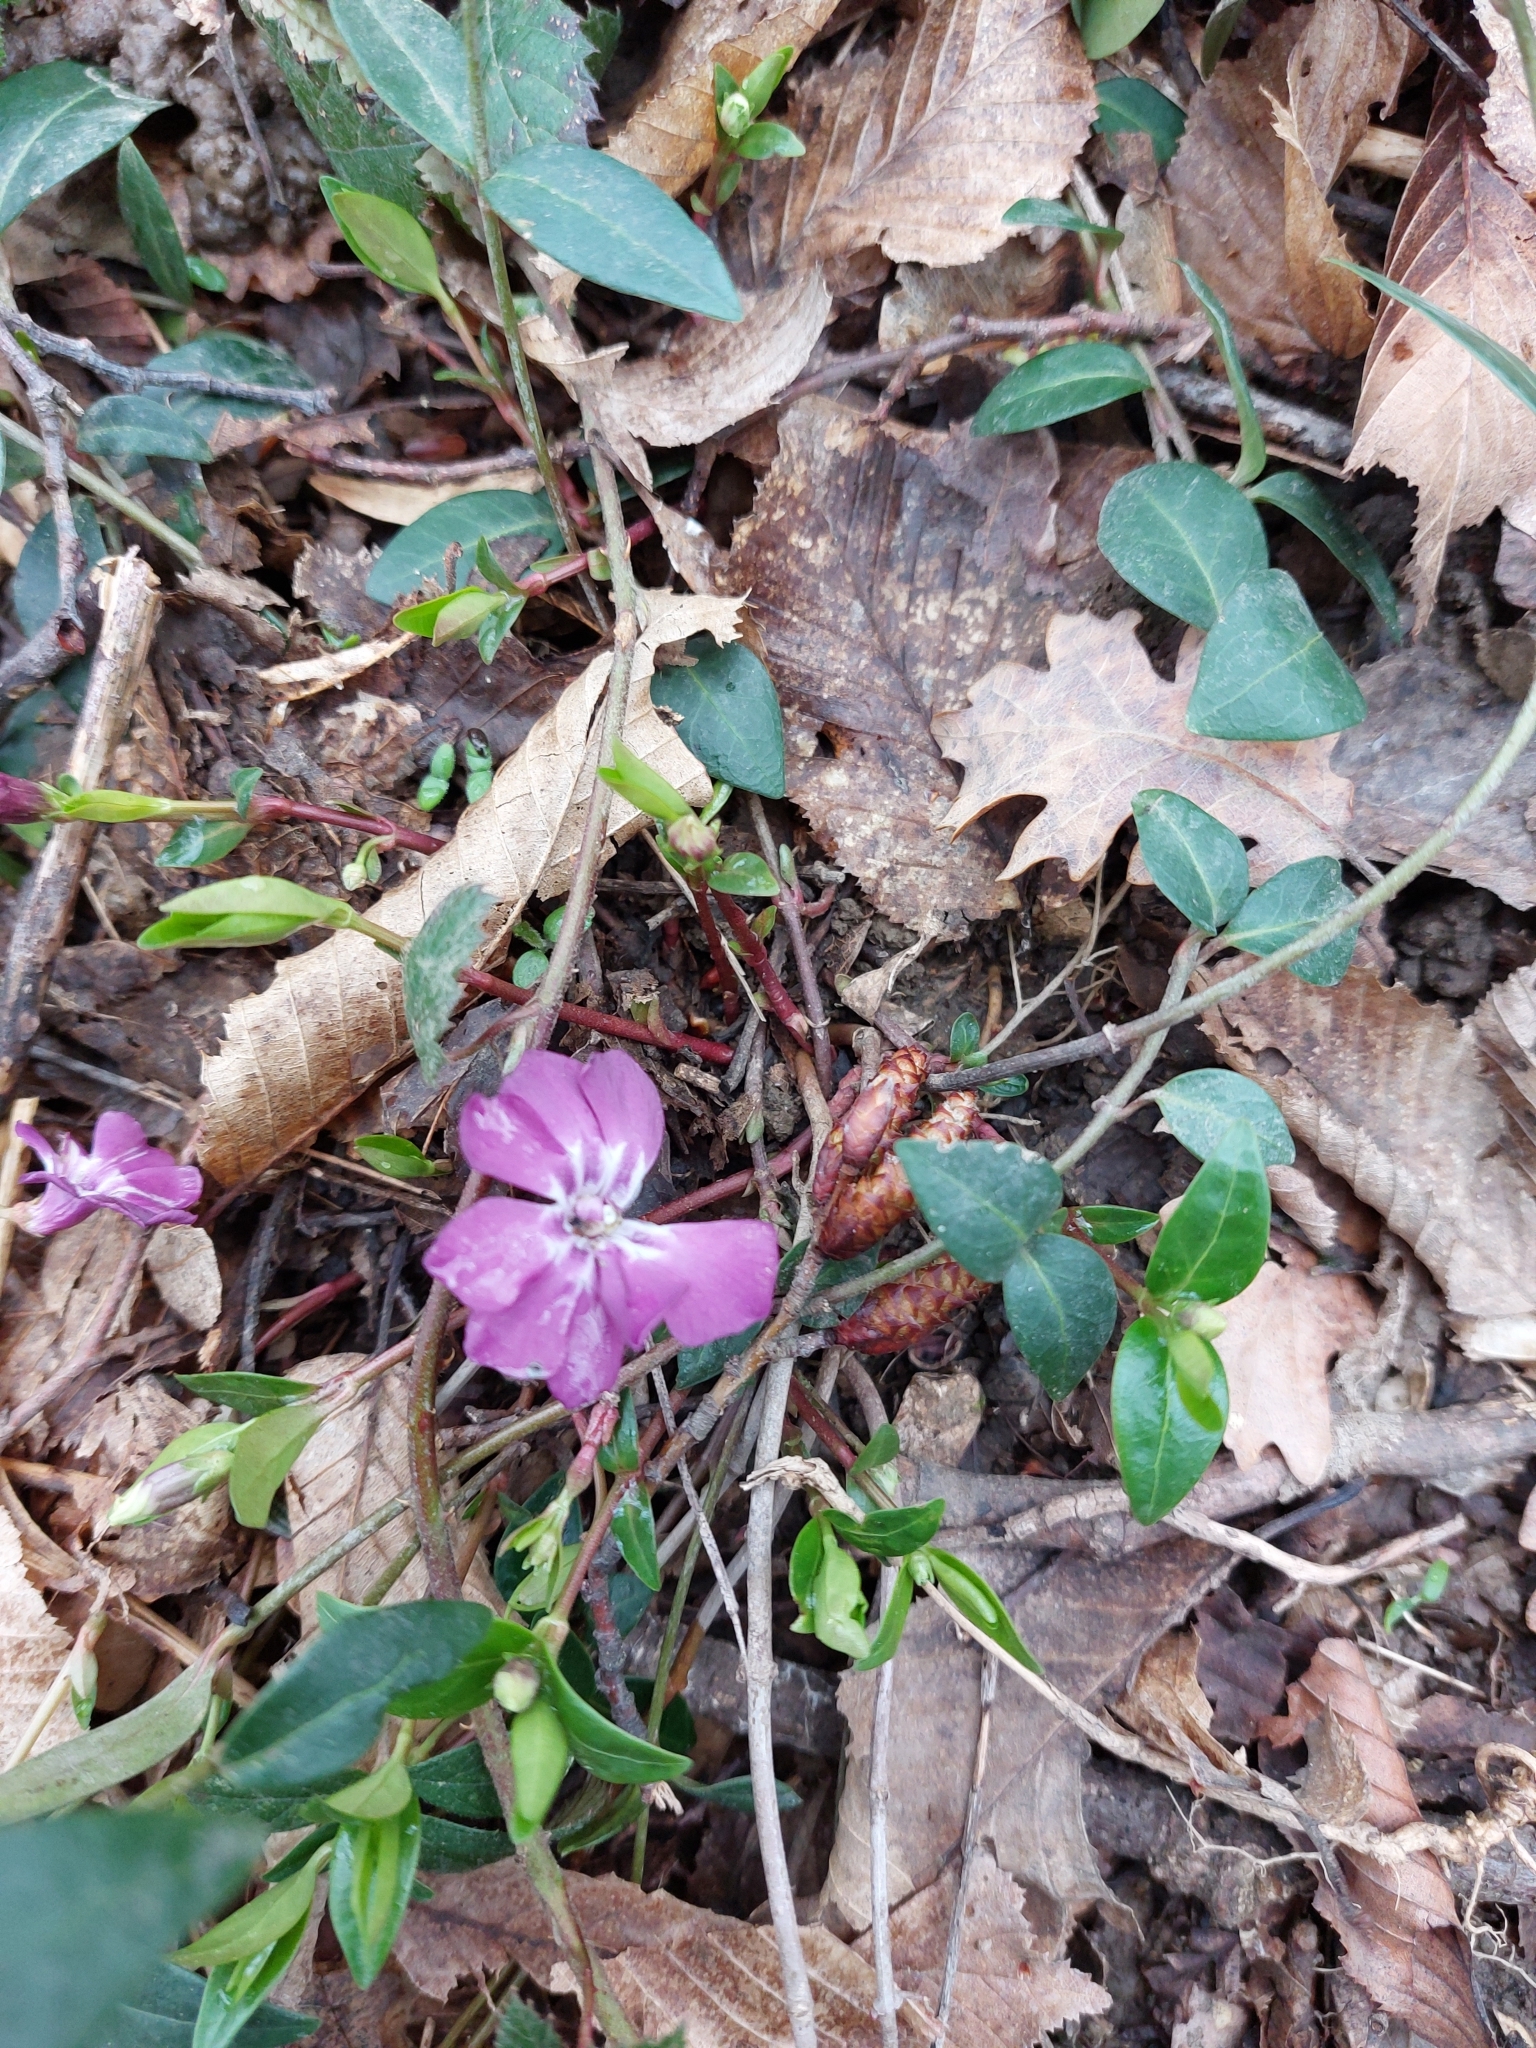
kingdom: Plantae
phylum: Tracheophyta
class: Magnoliopsida
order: Gentianales
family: Apocynaceae
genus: Vinca
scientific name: Vinca minor
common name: Lesser periwinkle
